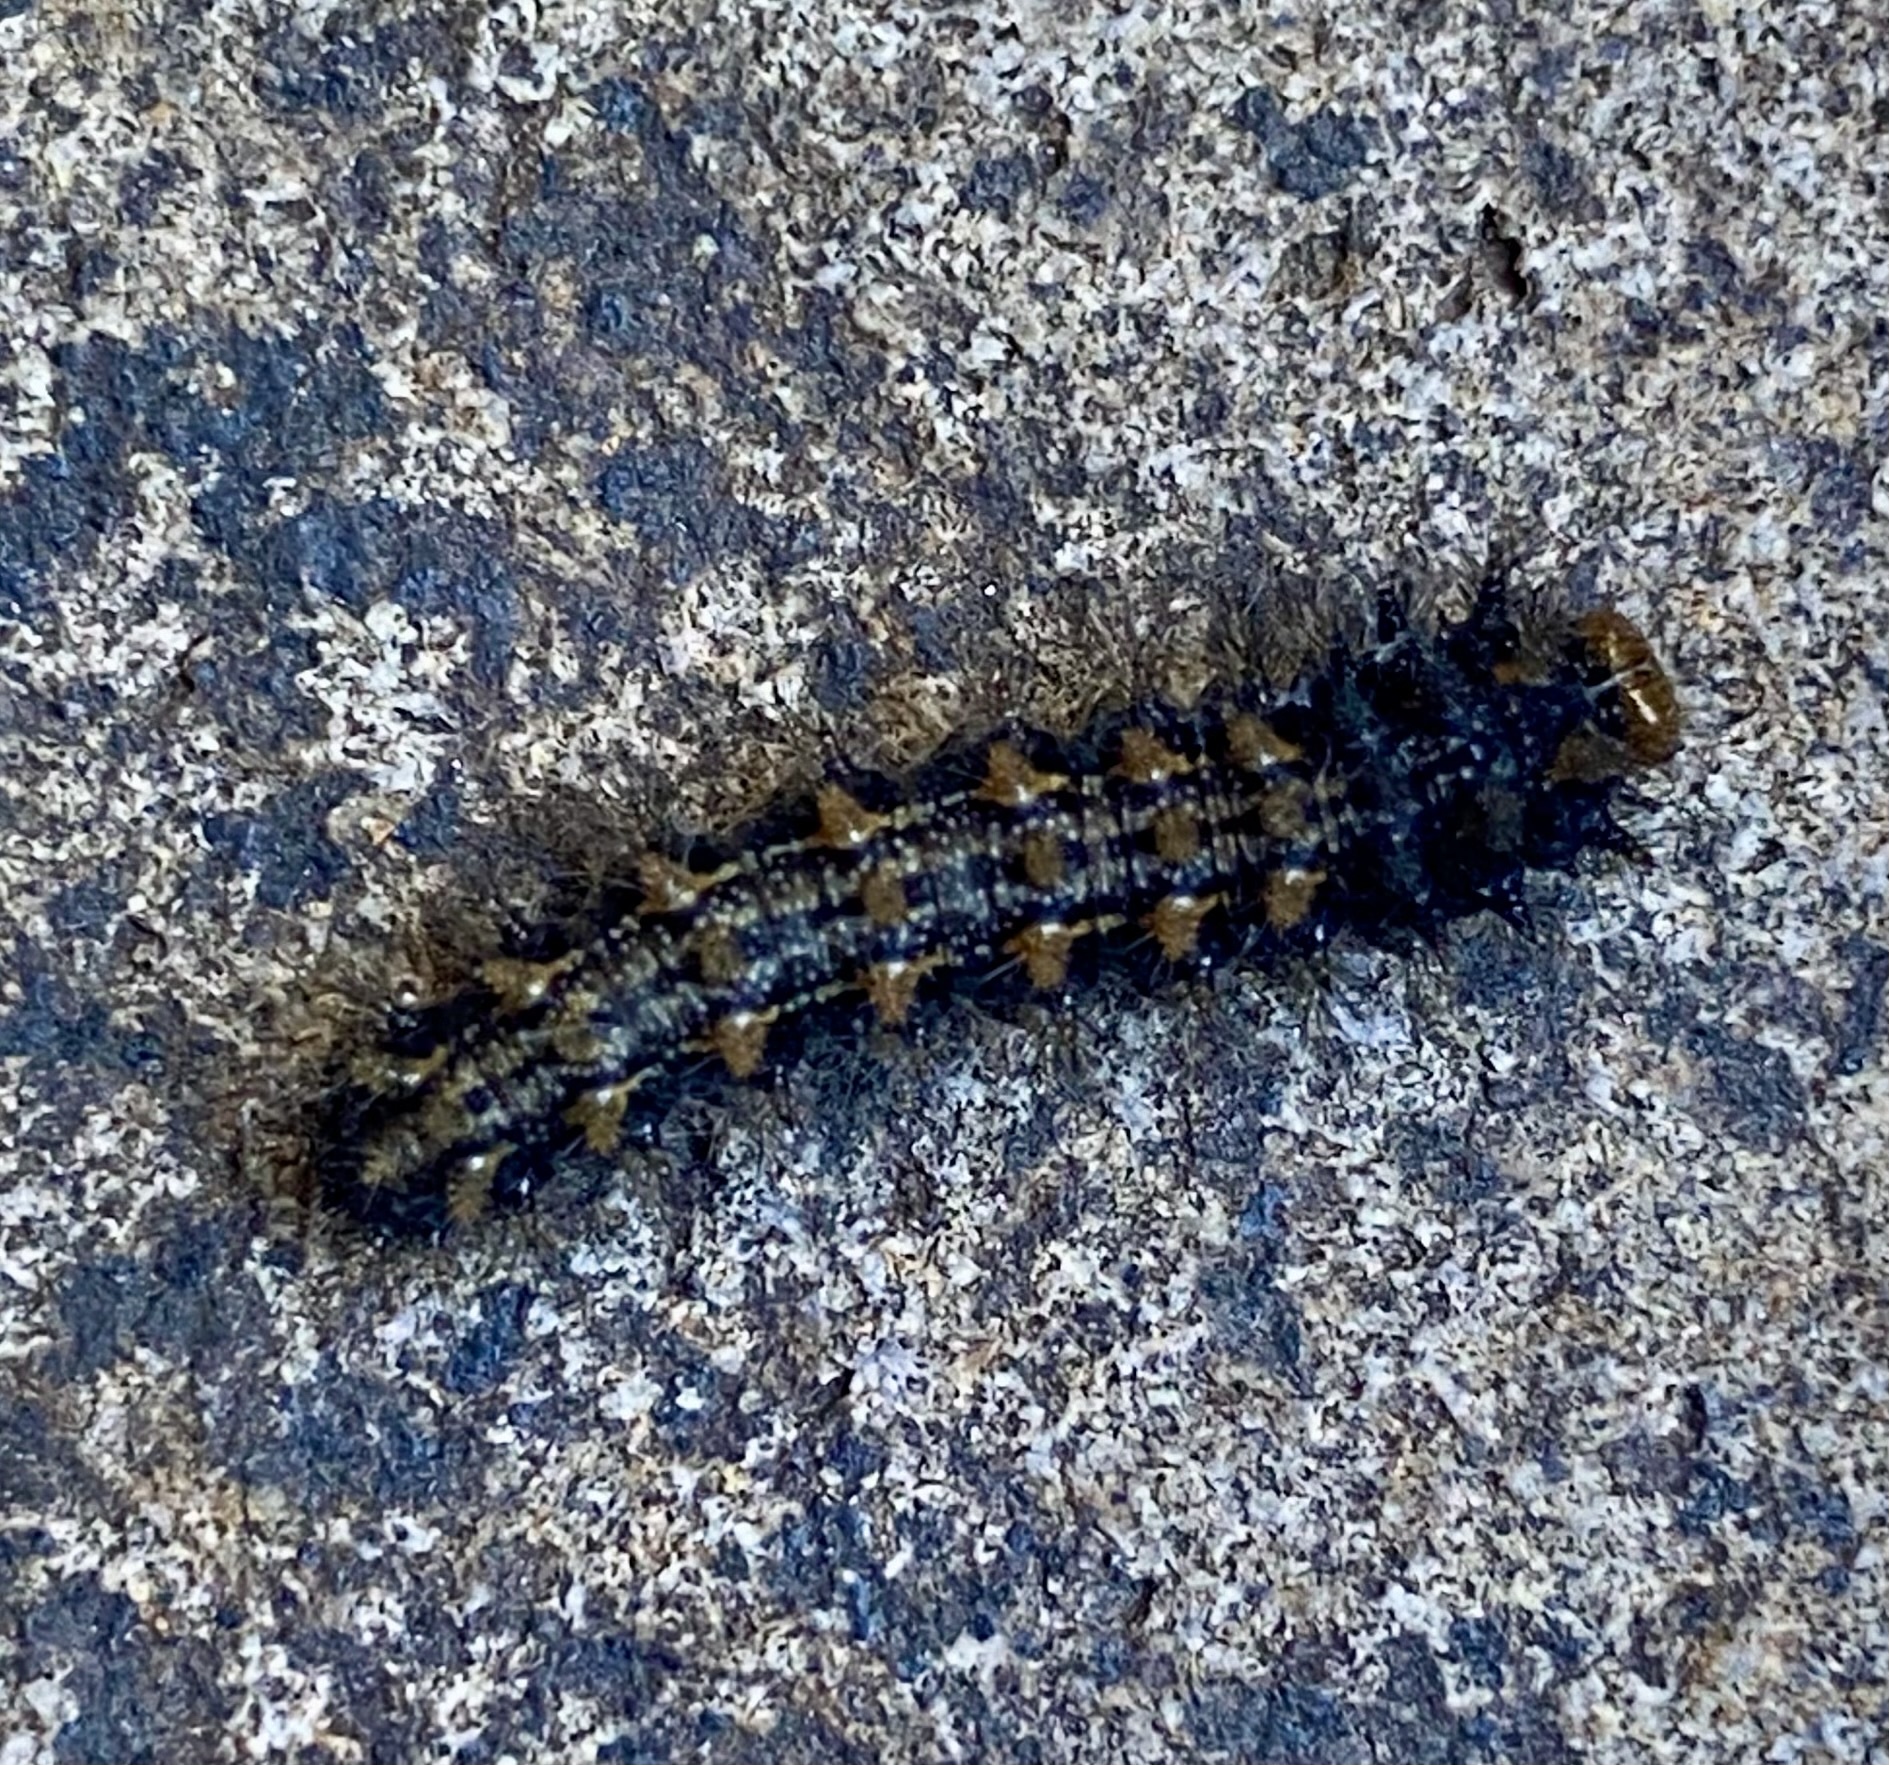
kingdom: Animalia
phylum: Arthropoda
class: Insecta
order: Lepidoptera
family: Nymphalidae
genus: Ortilia
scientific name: Ortilia ithra
